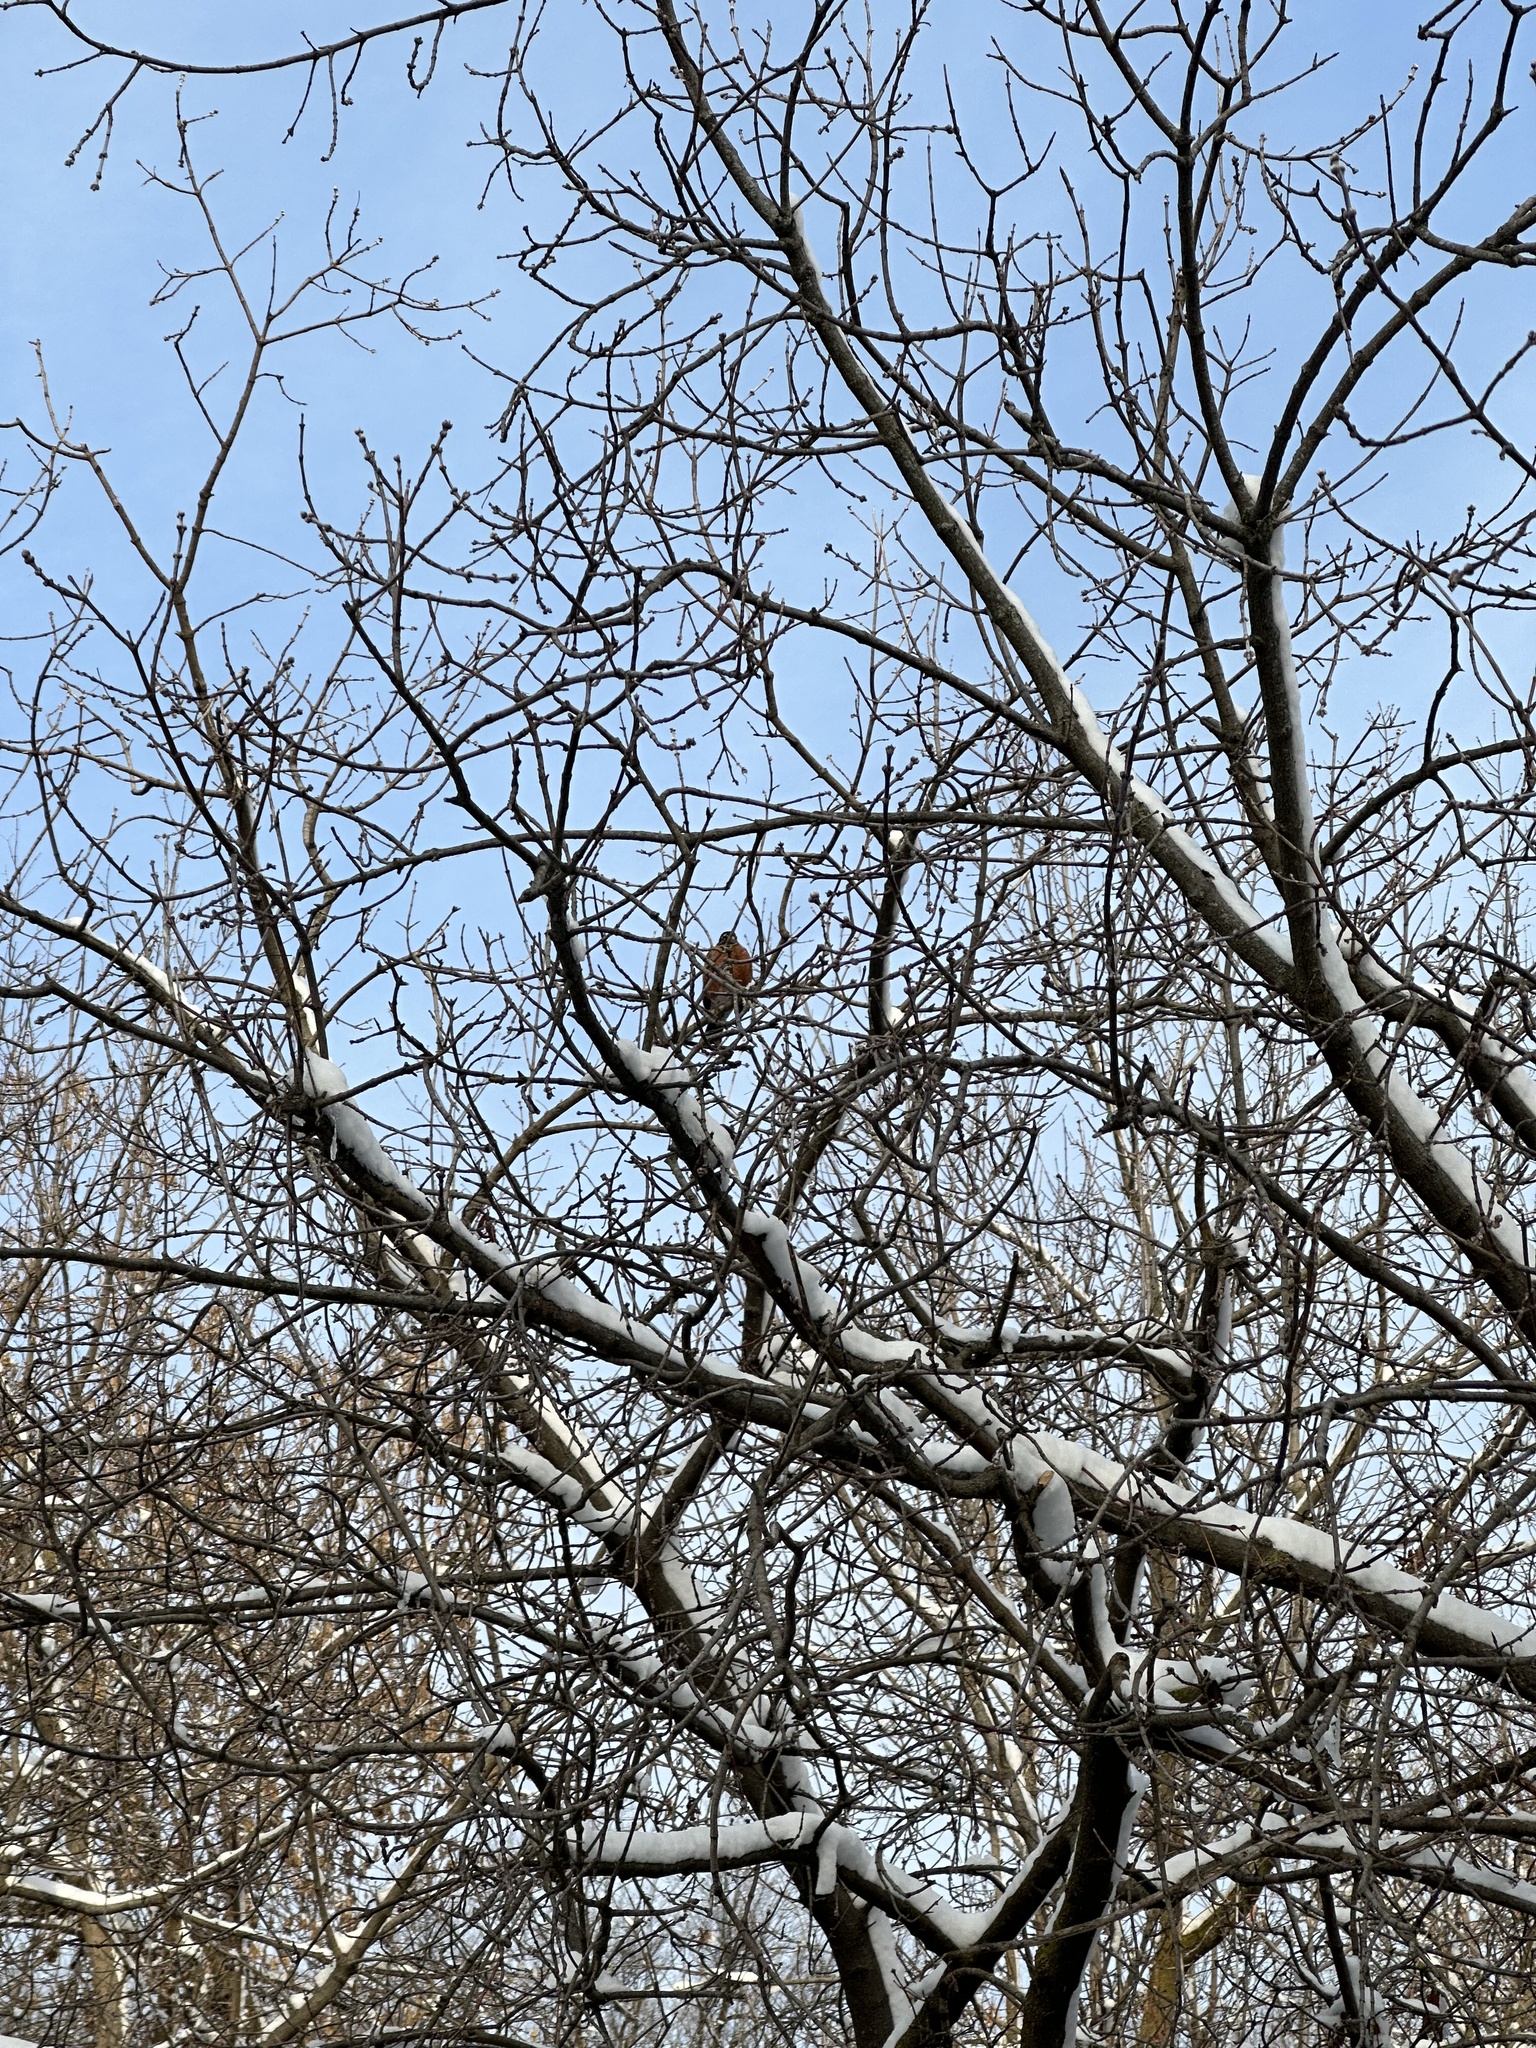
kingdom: Animalia
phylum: Chordata
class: Aves
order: Passeriformes
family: Turdidae
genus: Turdus
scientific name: Turdus migratorius
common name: American robin
